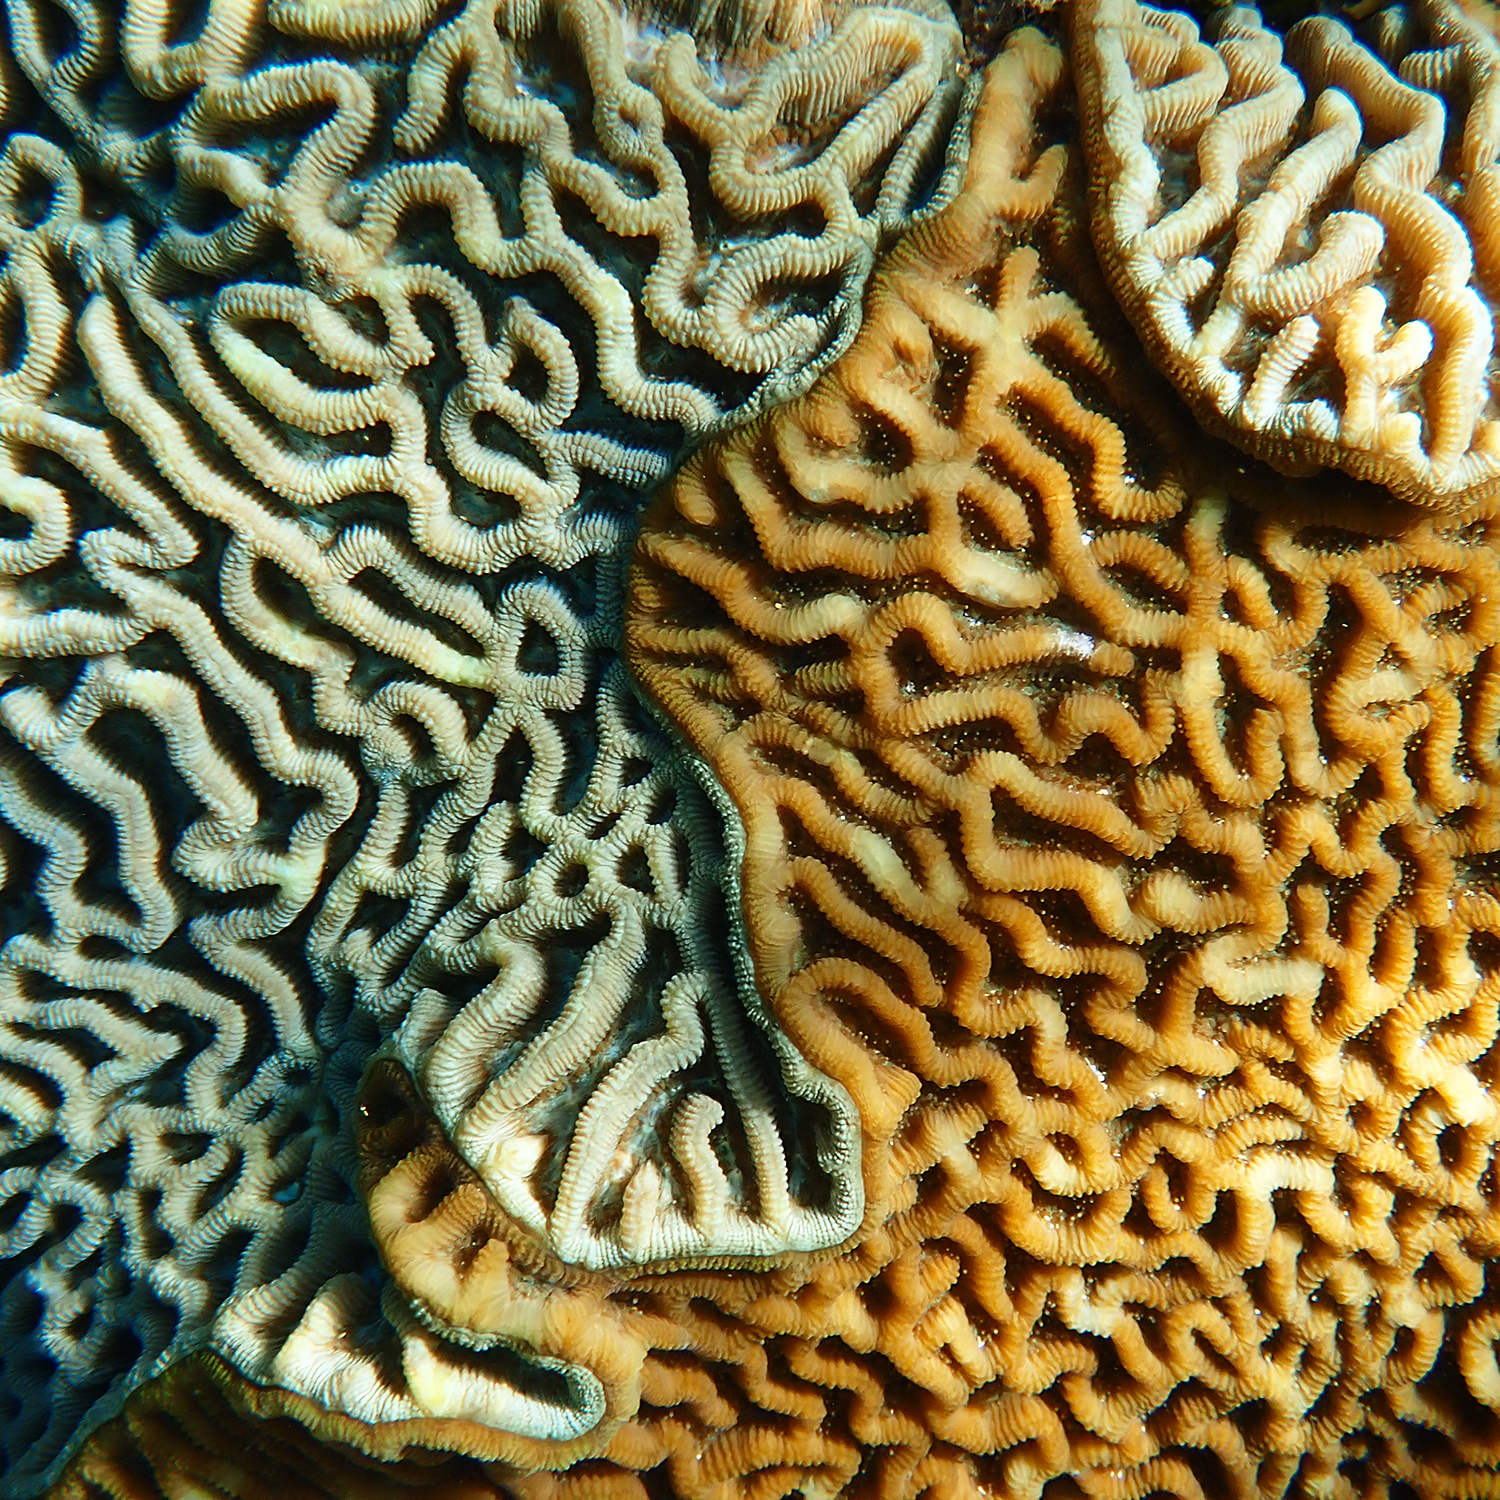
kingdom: Animalia
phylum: Cnidaria
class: Anthozoa
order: Scleractinia
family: Merulinidae
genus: Paragoniastrea
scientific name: Paragoniastrea australensis
